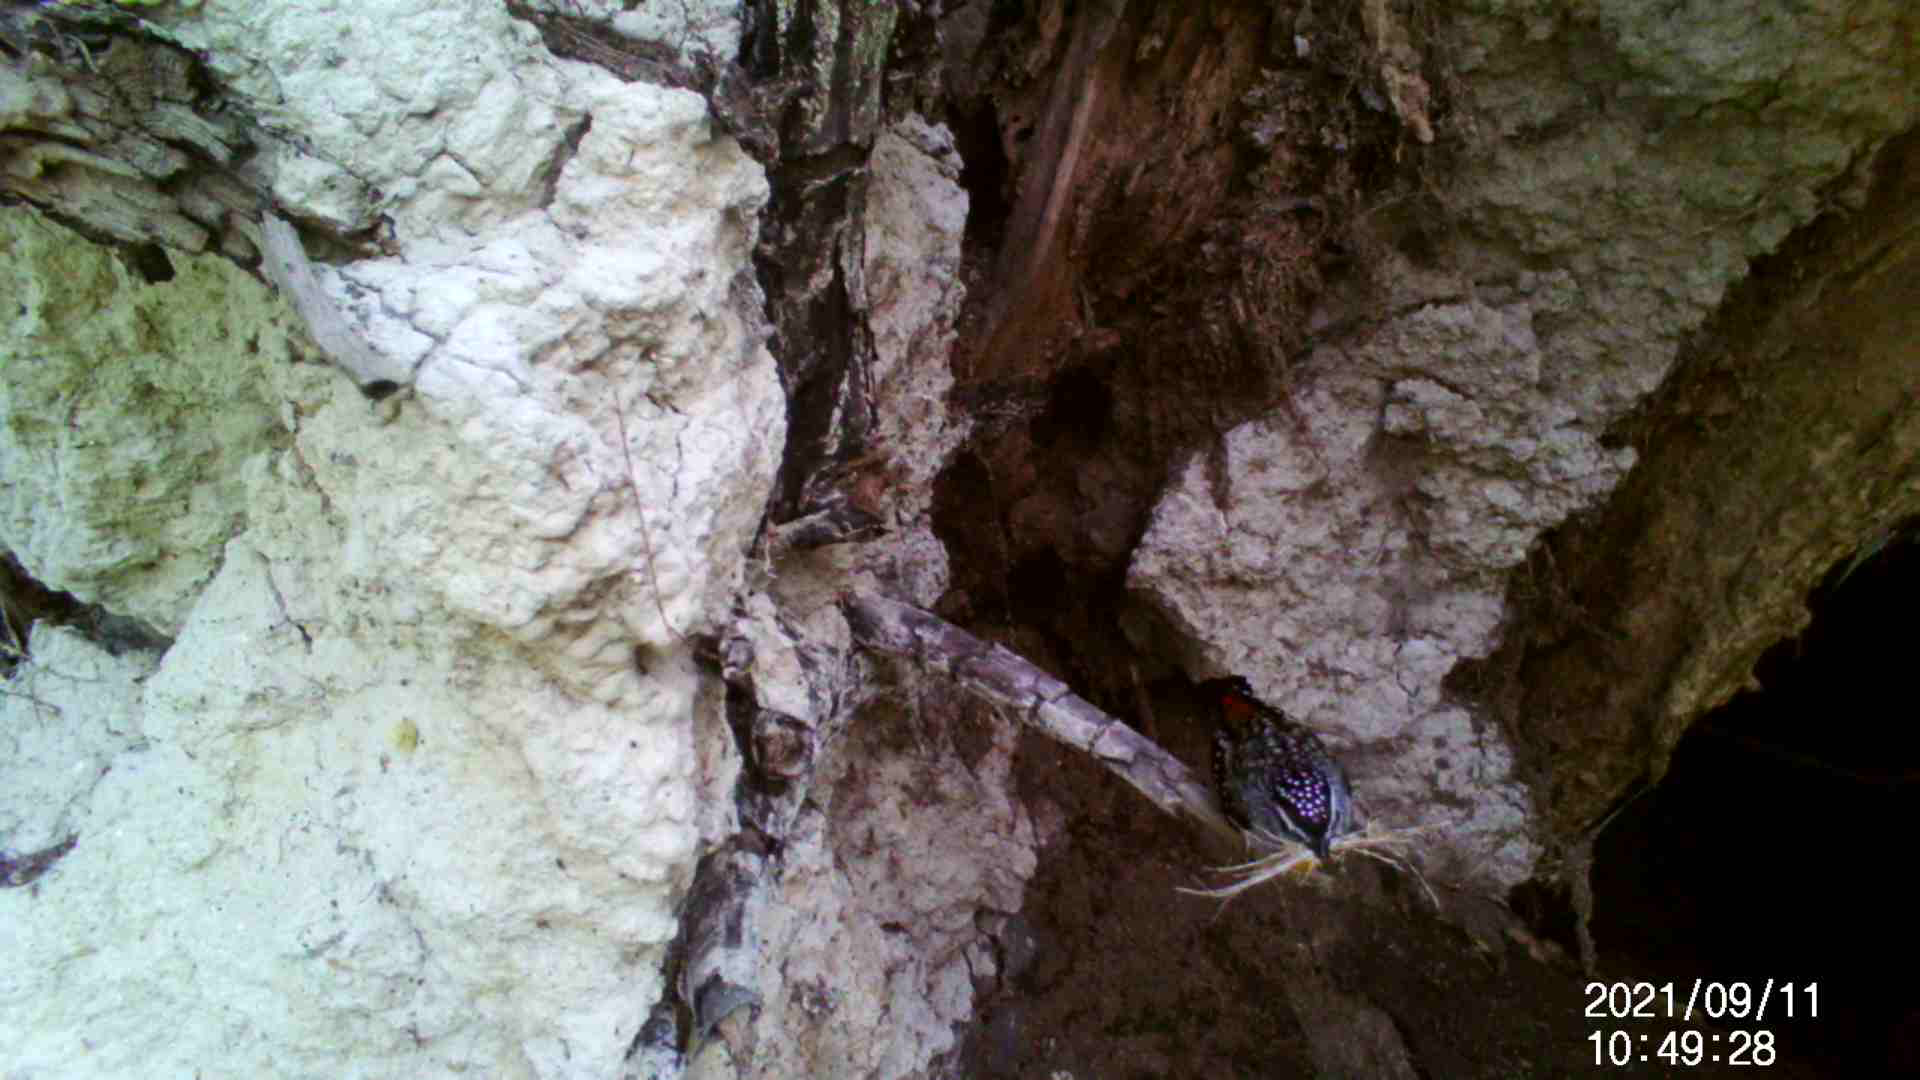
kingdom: Animalia
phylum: Chordata
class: Aves
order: Passeriformes
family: Pardalotidae
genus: Pardalotus
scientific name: Pardalotus punctatus
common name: Spotted pardalote
